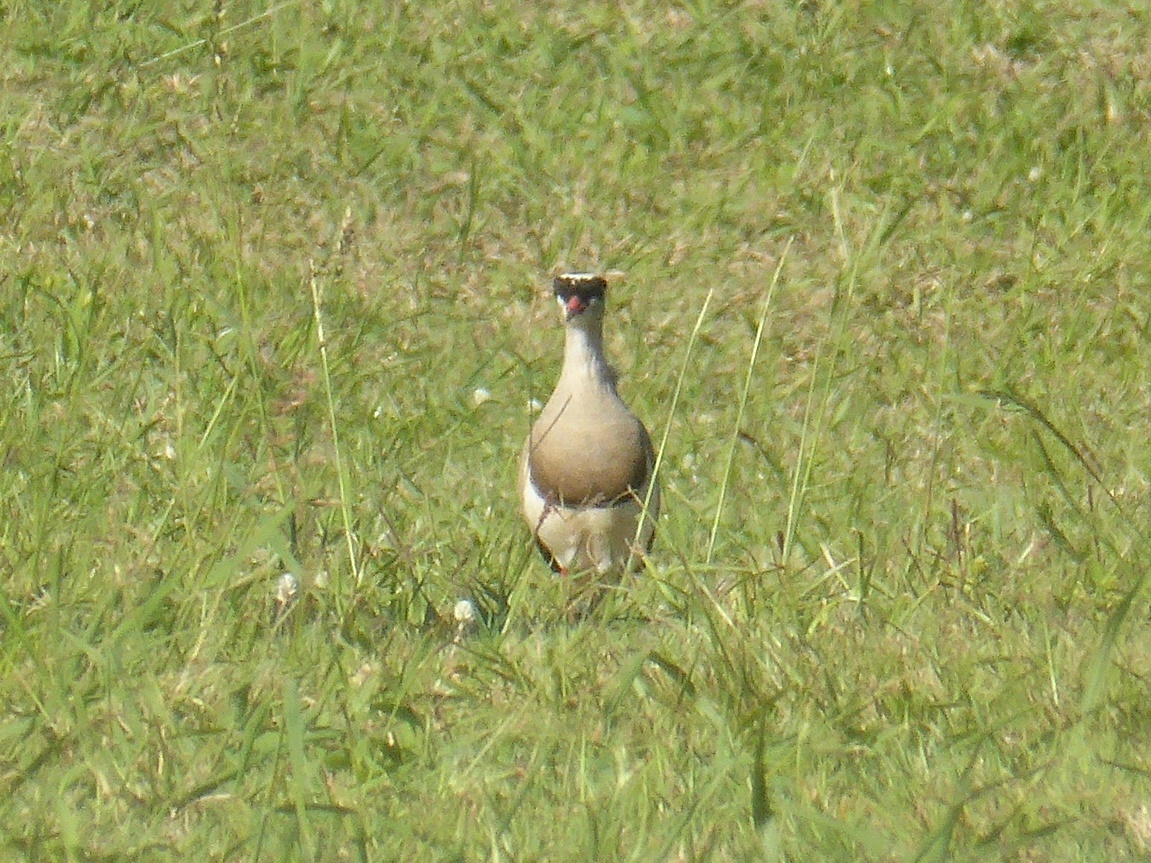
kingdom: Animalia
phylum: Chordata
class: Aves
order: Charadriiformes
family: Charadriidae
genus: Vanellus
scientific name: Vanellus coronatus
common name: Crowned lapwing
